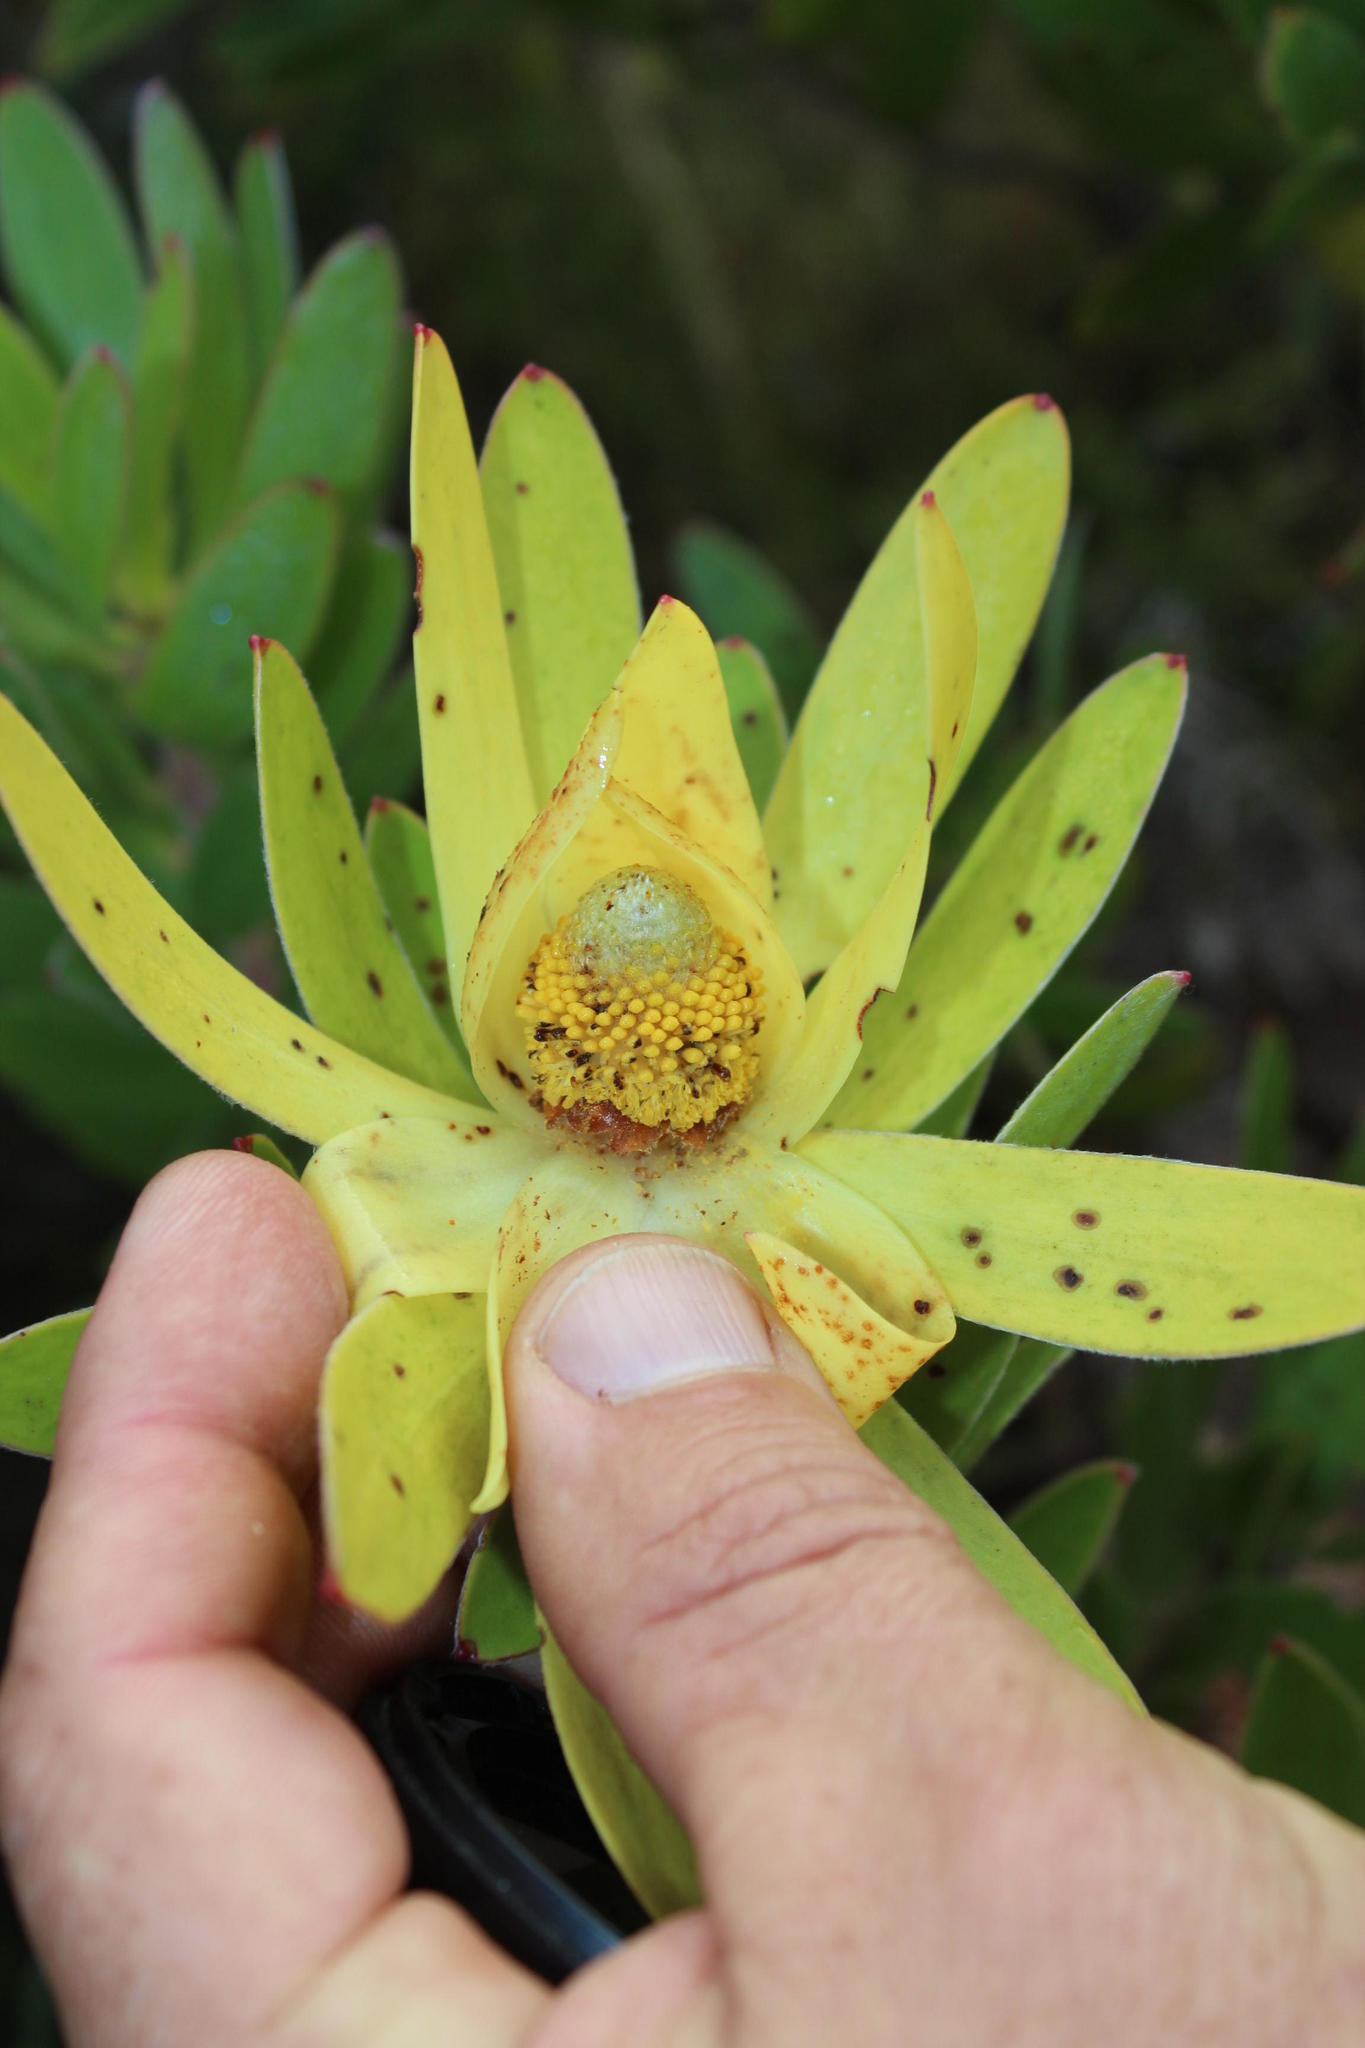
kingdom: Plantae
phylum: Tracheophyta
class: Magnoliopsida
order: Proteales
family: Proteaceae
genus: Leucadendron
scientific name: Leucadendron laureolum
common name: Golden sunshinebush
